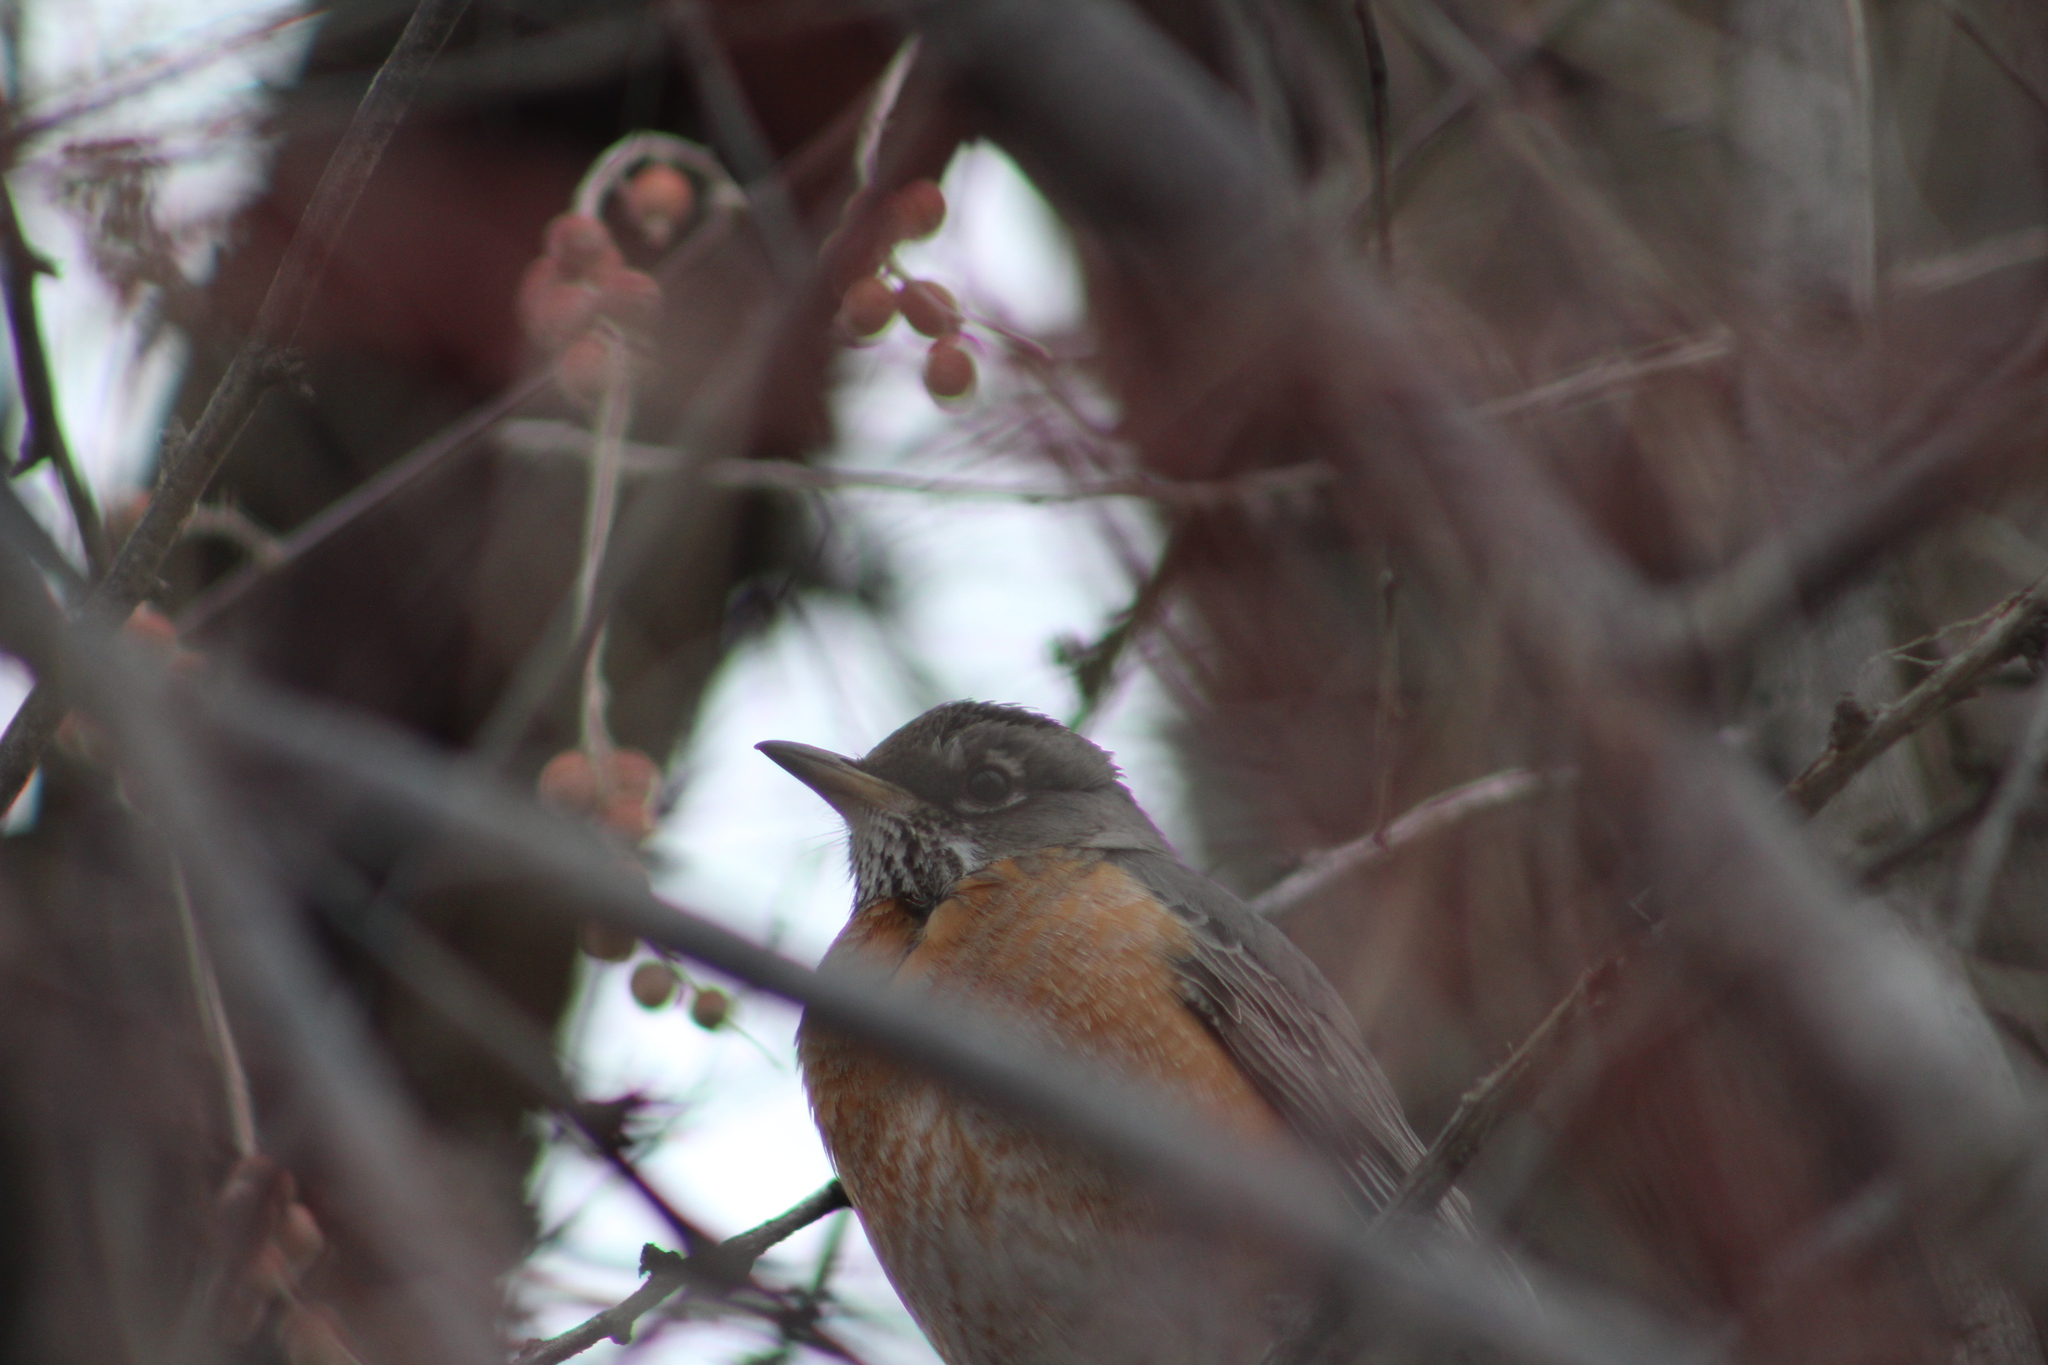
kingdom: Animalia
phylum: Chordata
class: Aves
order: Passeriformes
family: Turdidae
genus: Turdus
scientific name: Turdus migratorius
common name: American robin
